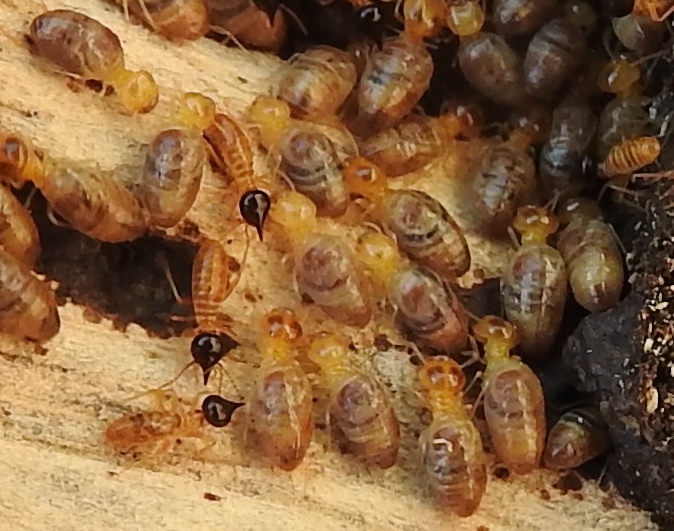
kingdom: Animalia
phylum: Arthropoda
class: Insecta
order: Blattodea
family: Termitidae
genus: Nasutitermes
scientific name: Nasutitermes
